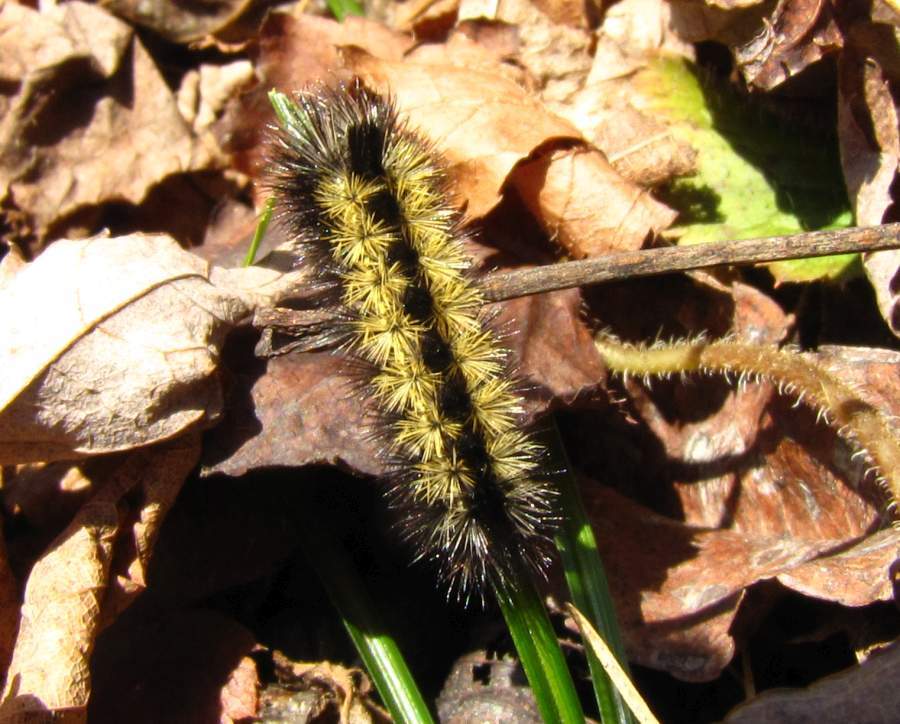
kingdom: Animalia
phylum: Arthropoda
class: Insecta
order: Lepidoptera
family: Erebidae
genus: Ctenucha
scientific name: Ctenucha virginica
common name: Virginia ctenucha moth
